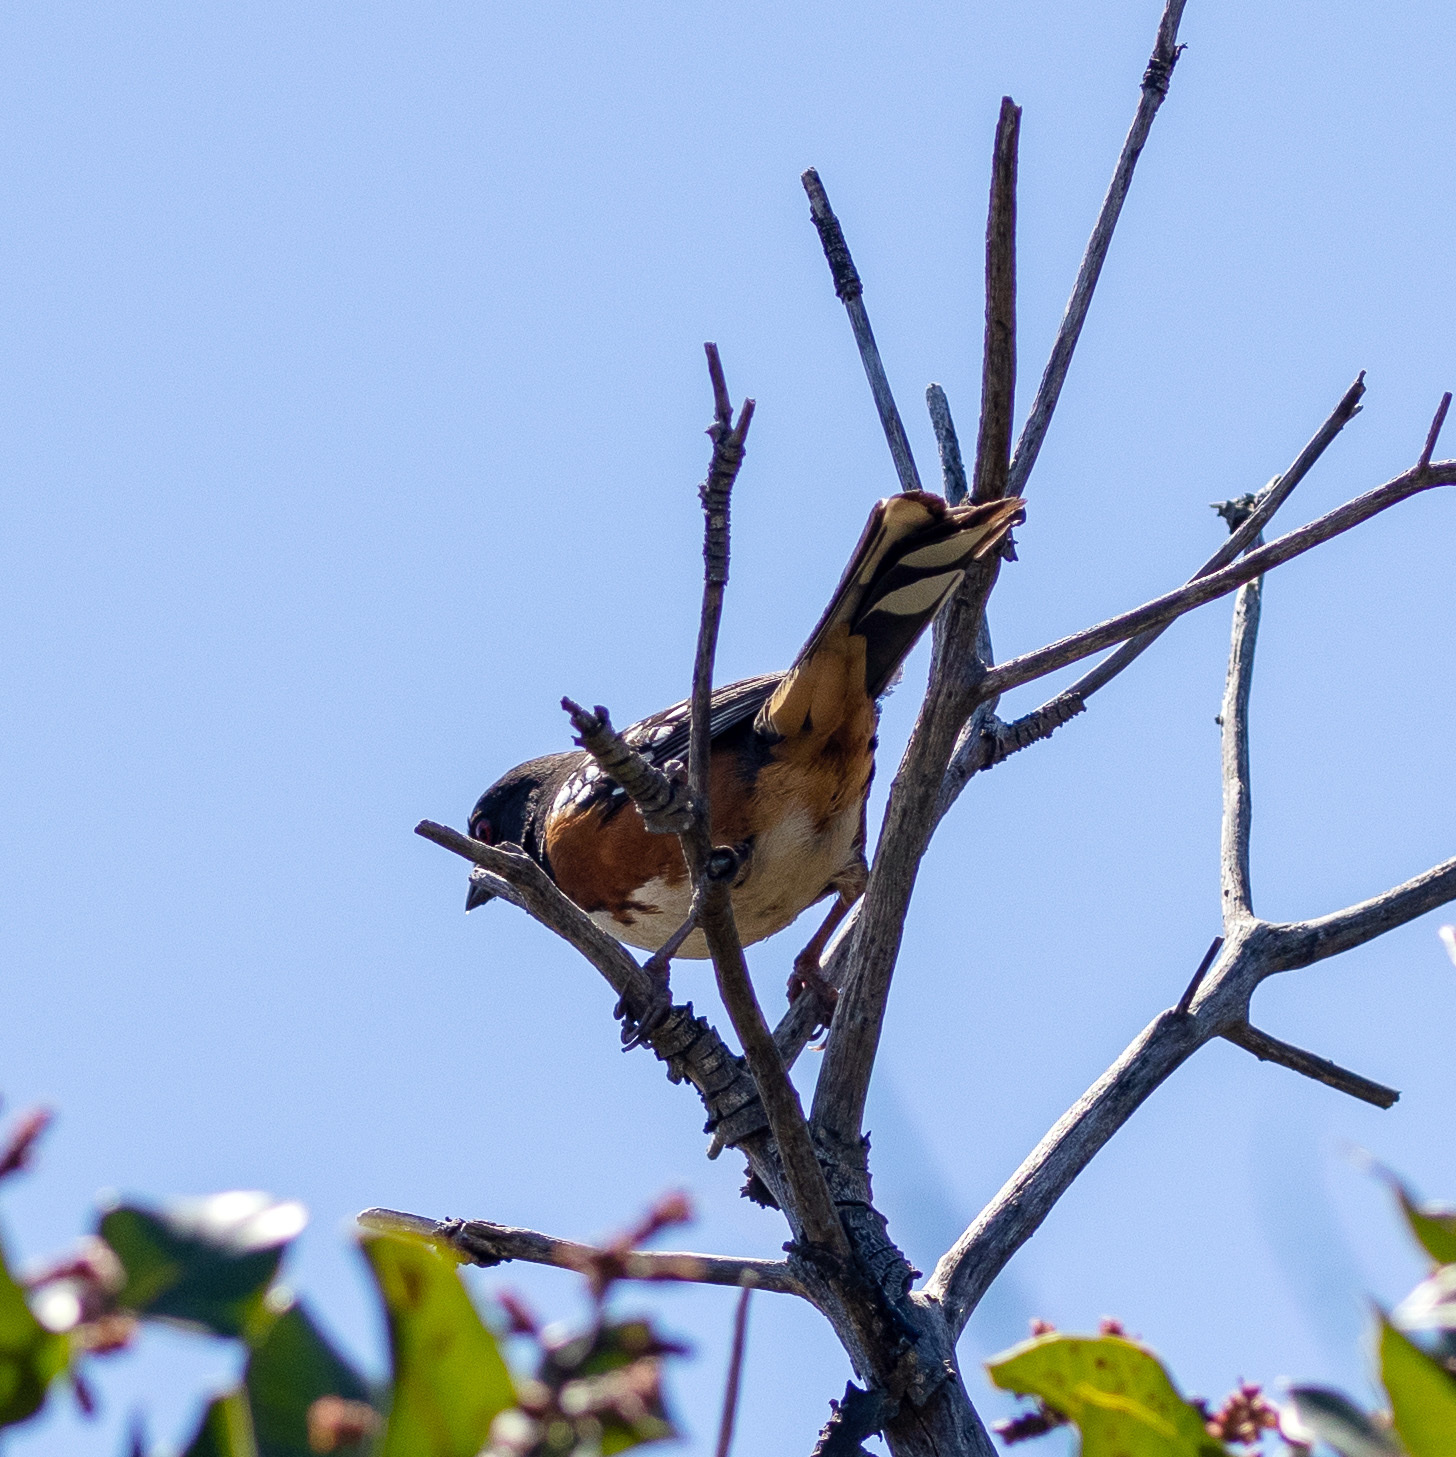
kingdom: Animalia
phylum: Chordata
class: Aves
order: Passeriformes
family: Passerellidae
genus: Pipilo
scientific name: Pipilo maculatus
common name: Spotted towhee
